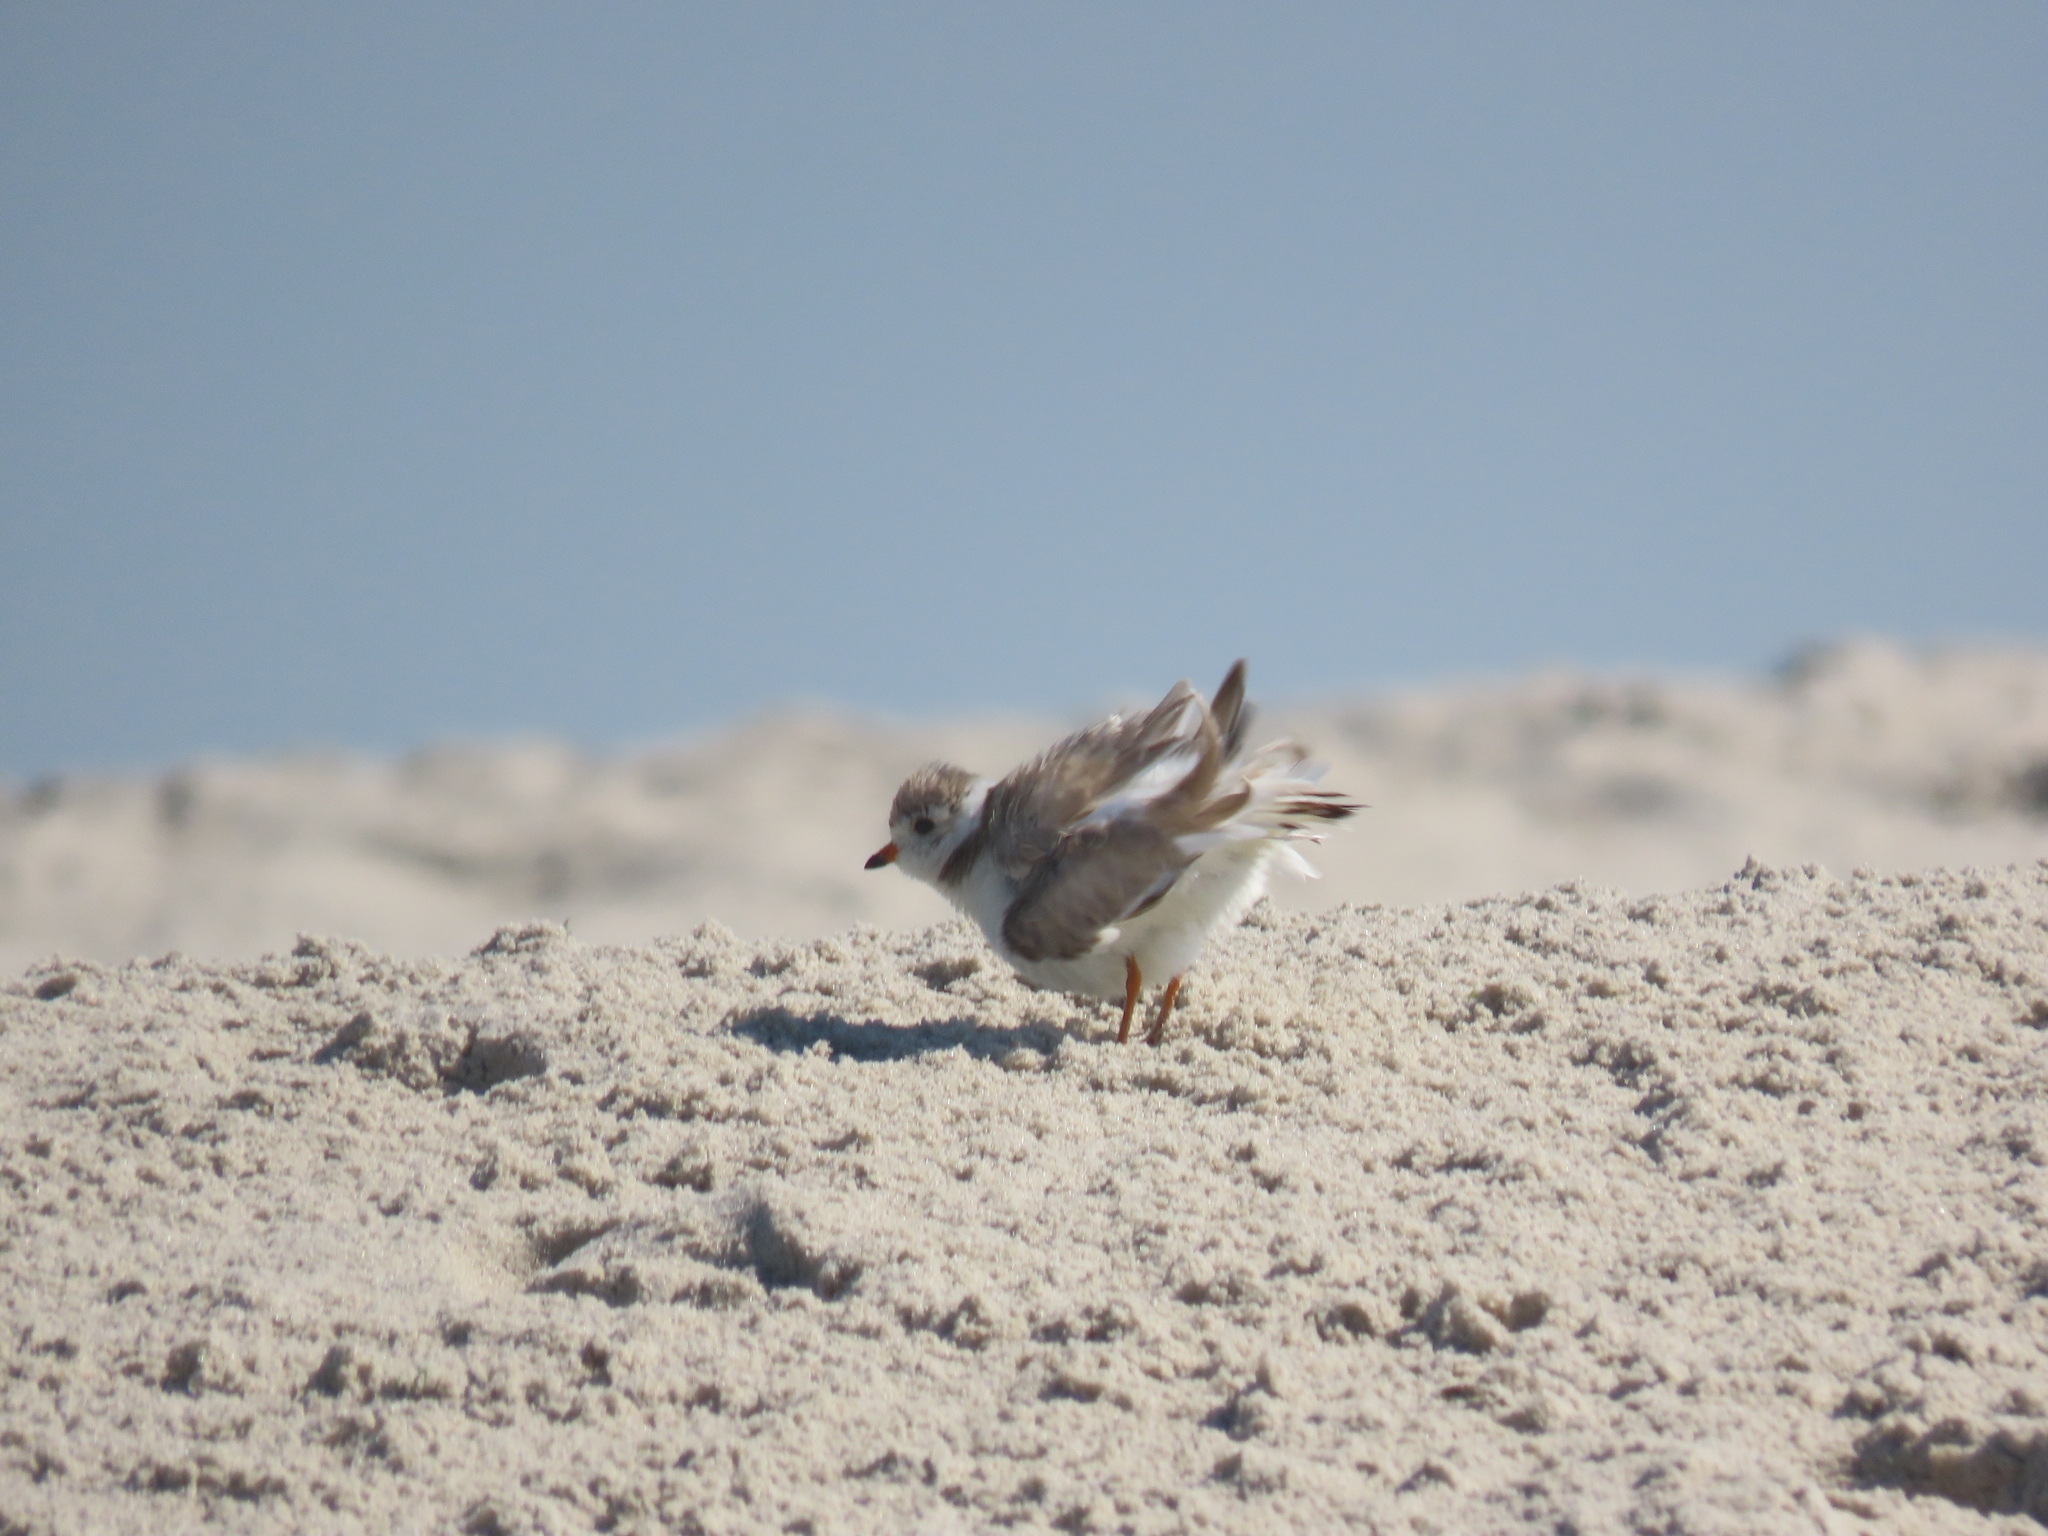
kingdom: Animalia
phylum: Chordata
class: Aves
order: Charadriiformes
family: Charadriidae
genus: Charadrius
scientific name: Charadrius melodus
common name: Piping plover
